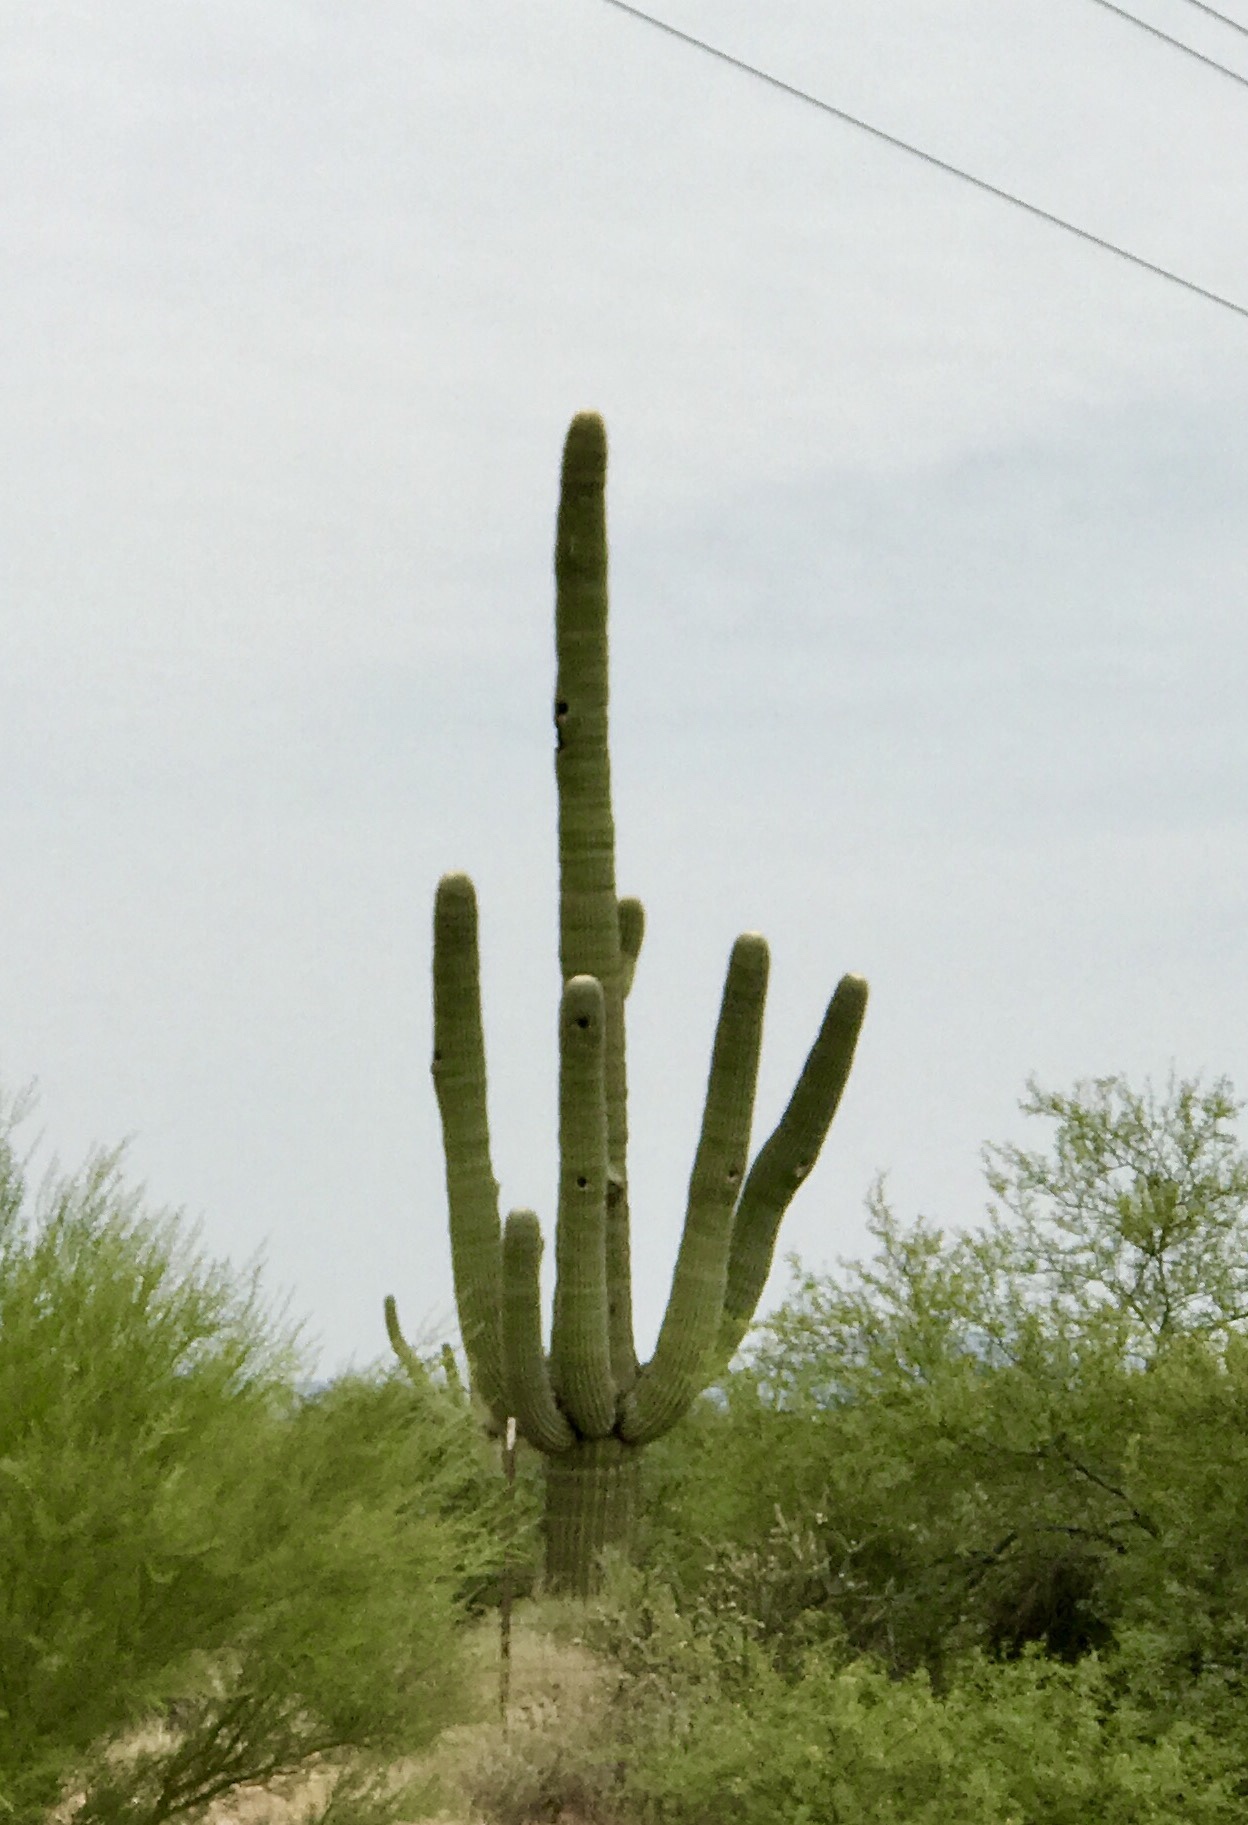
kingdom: Plantae
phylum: Tracheophyta
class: Magnoliopsida
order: Caryophyllales
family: Cactaceae
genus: Carnegiea
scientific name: Carnegiea gigantea
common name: Saguaro
